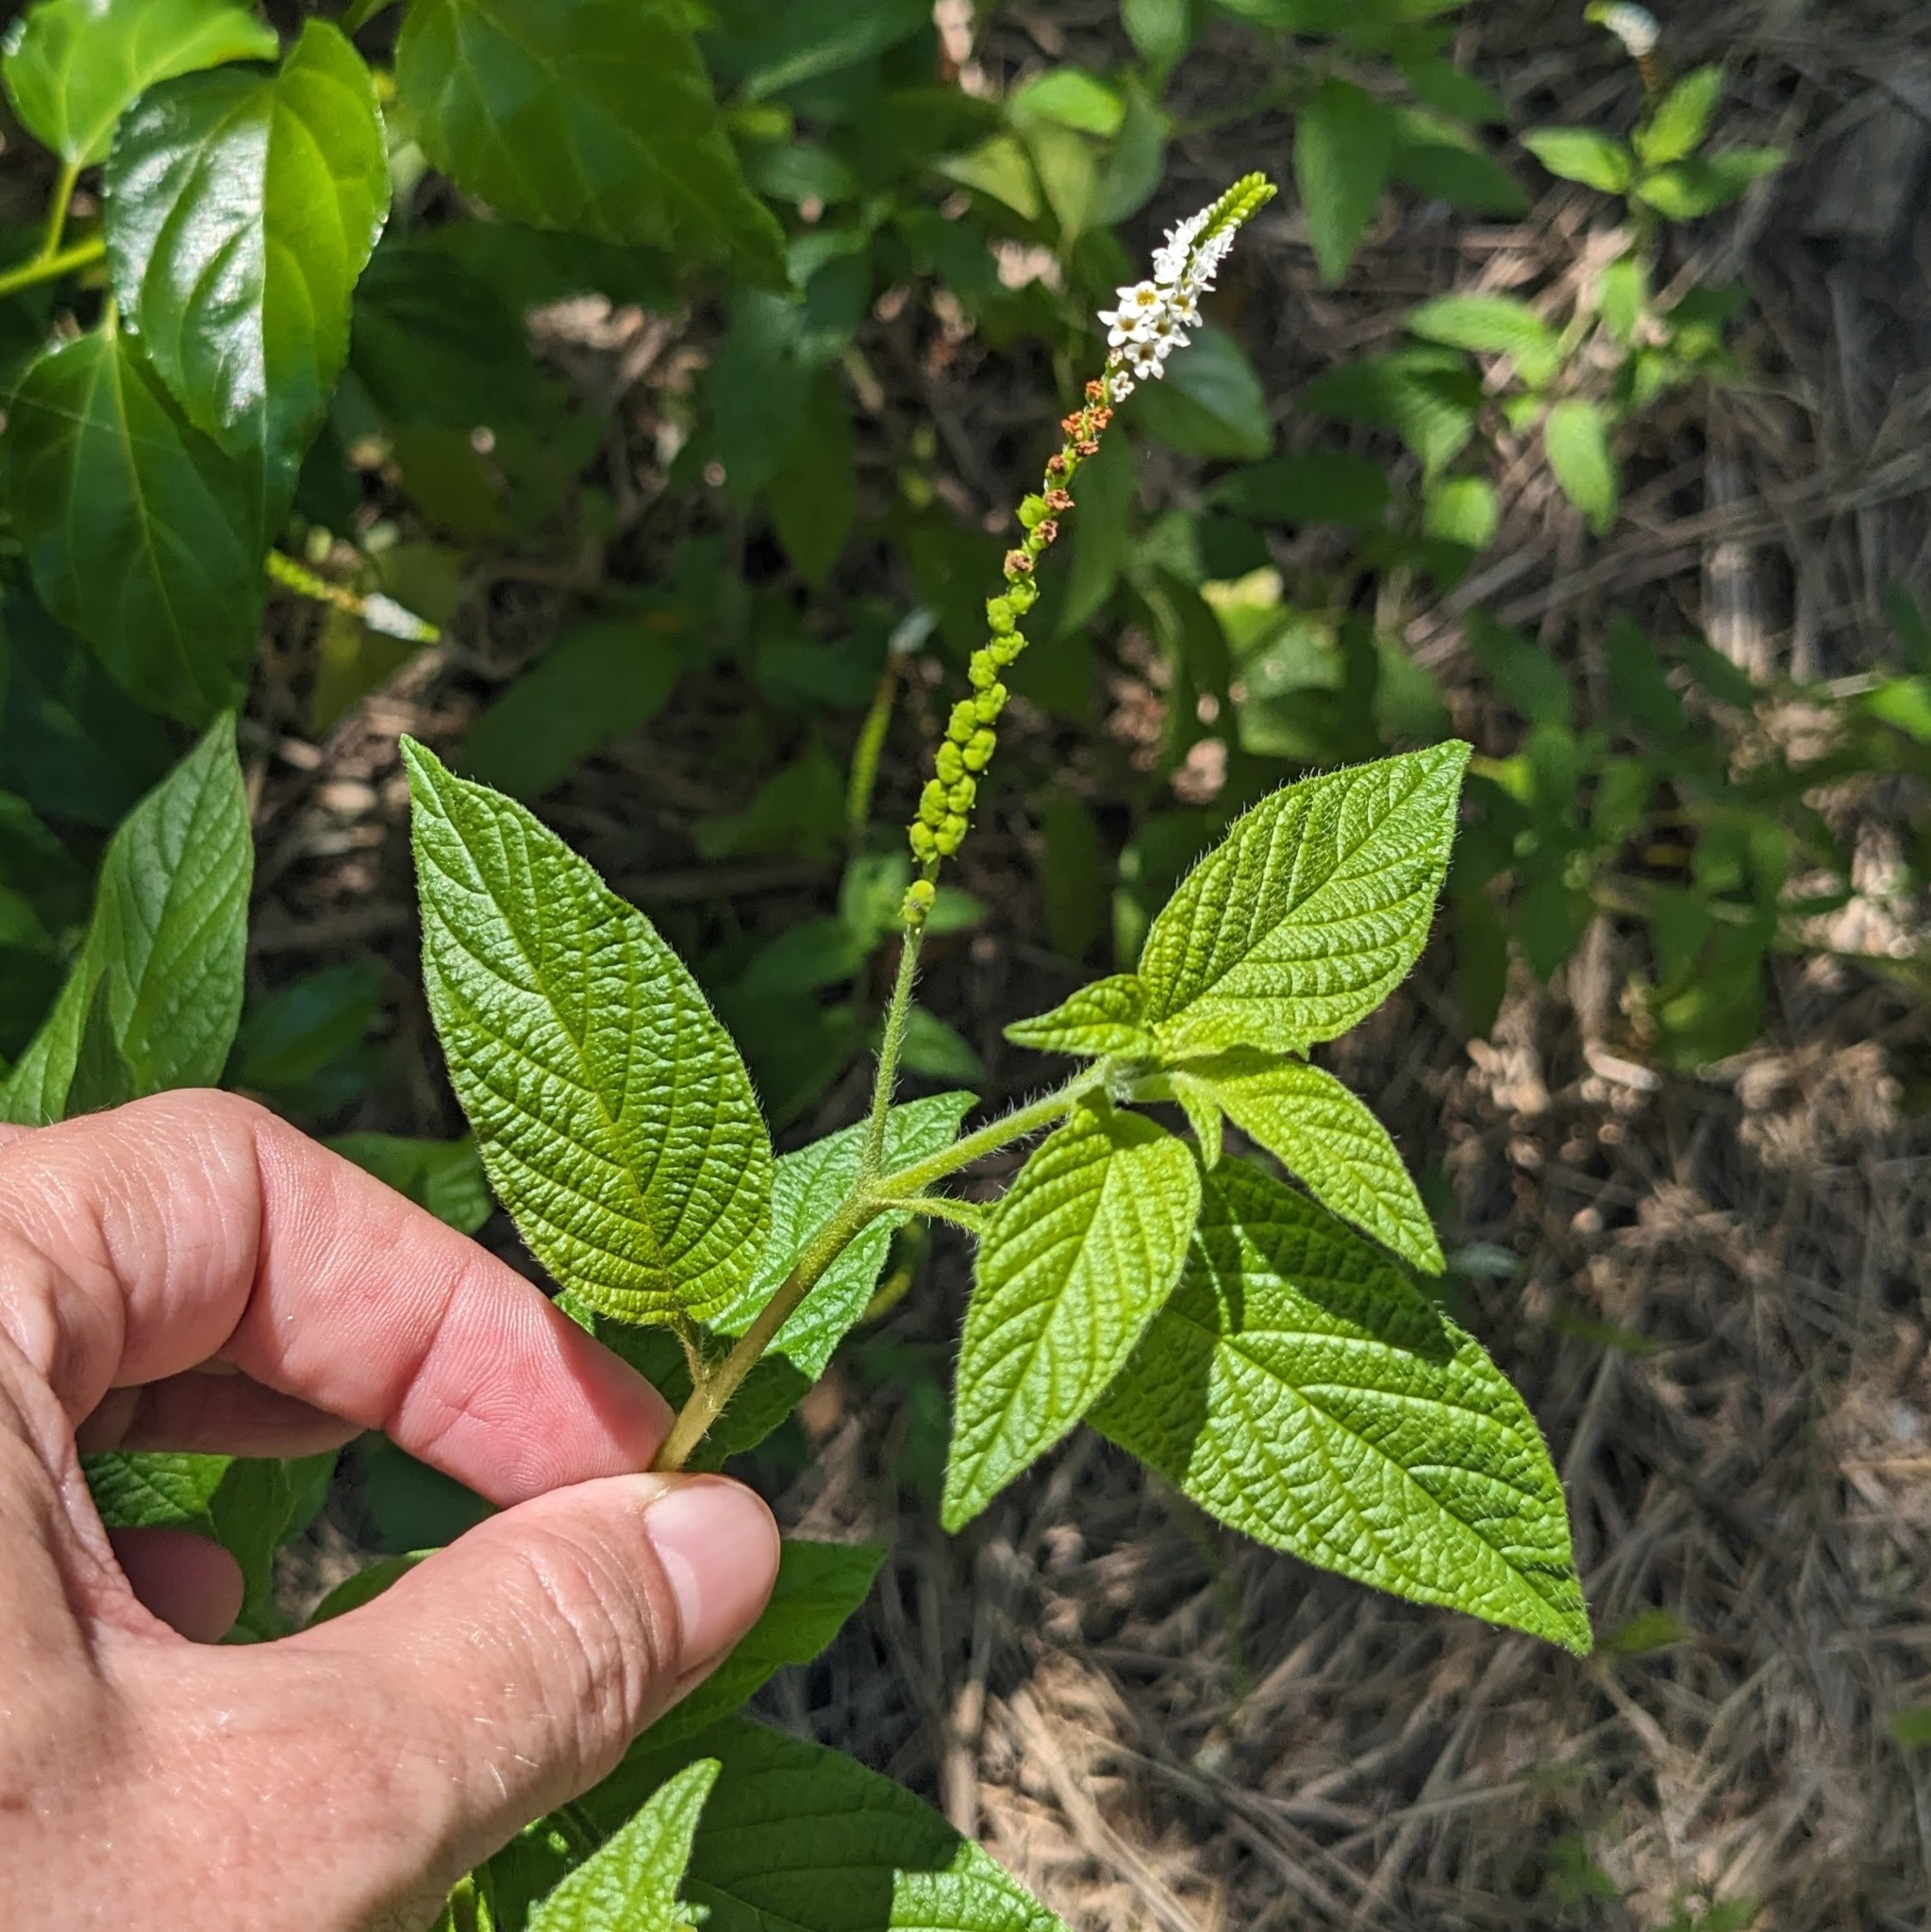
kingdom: Plantae
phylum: Tracheophyta
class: Magnoliopsida
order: Boraginales
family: Heliotropiaceae
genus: Heliotropium
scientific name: Heliotropium angiospermum
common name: Eye bright
